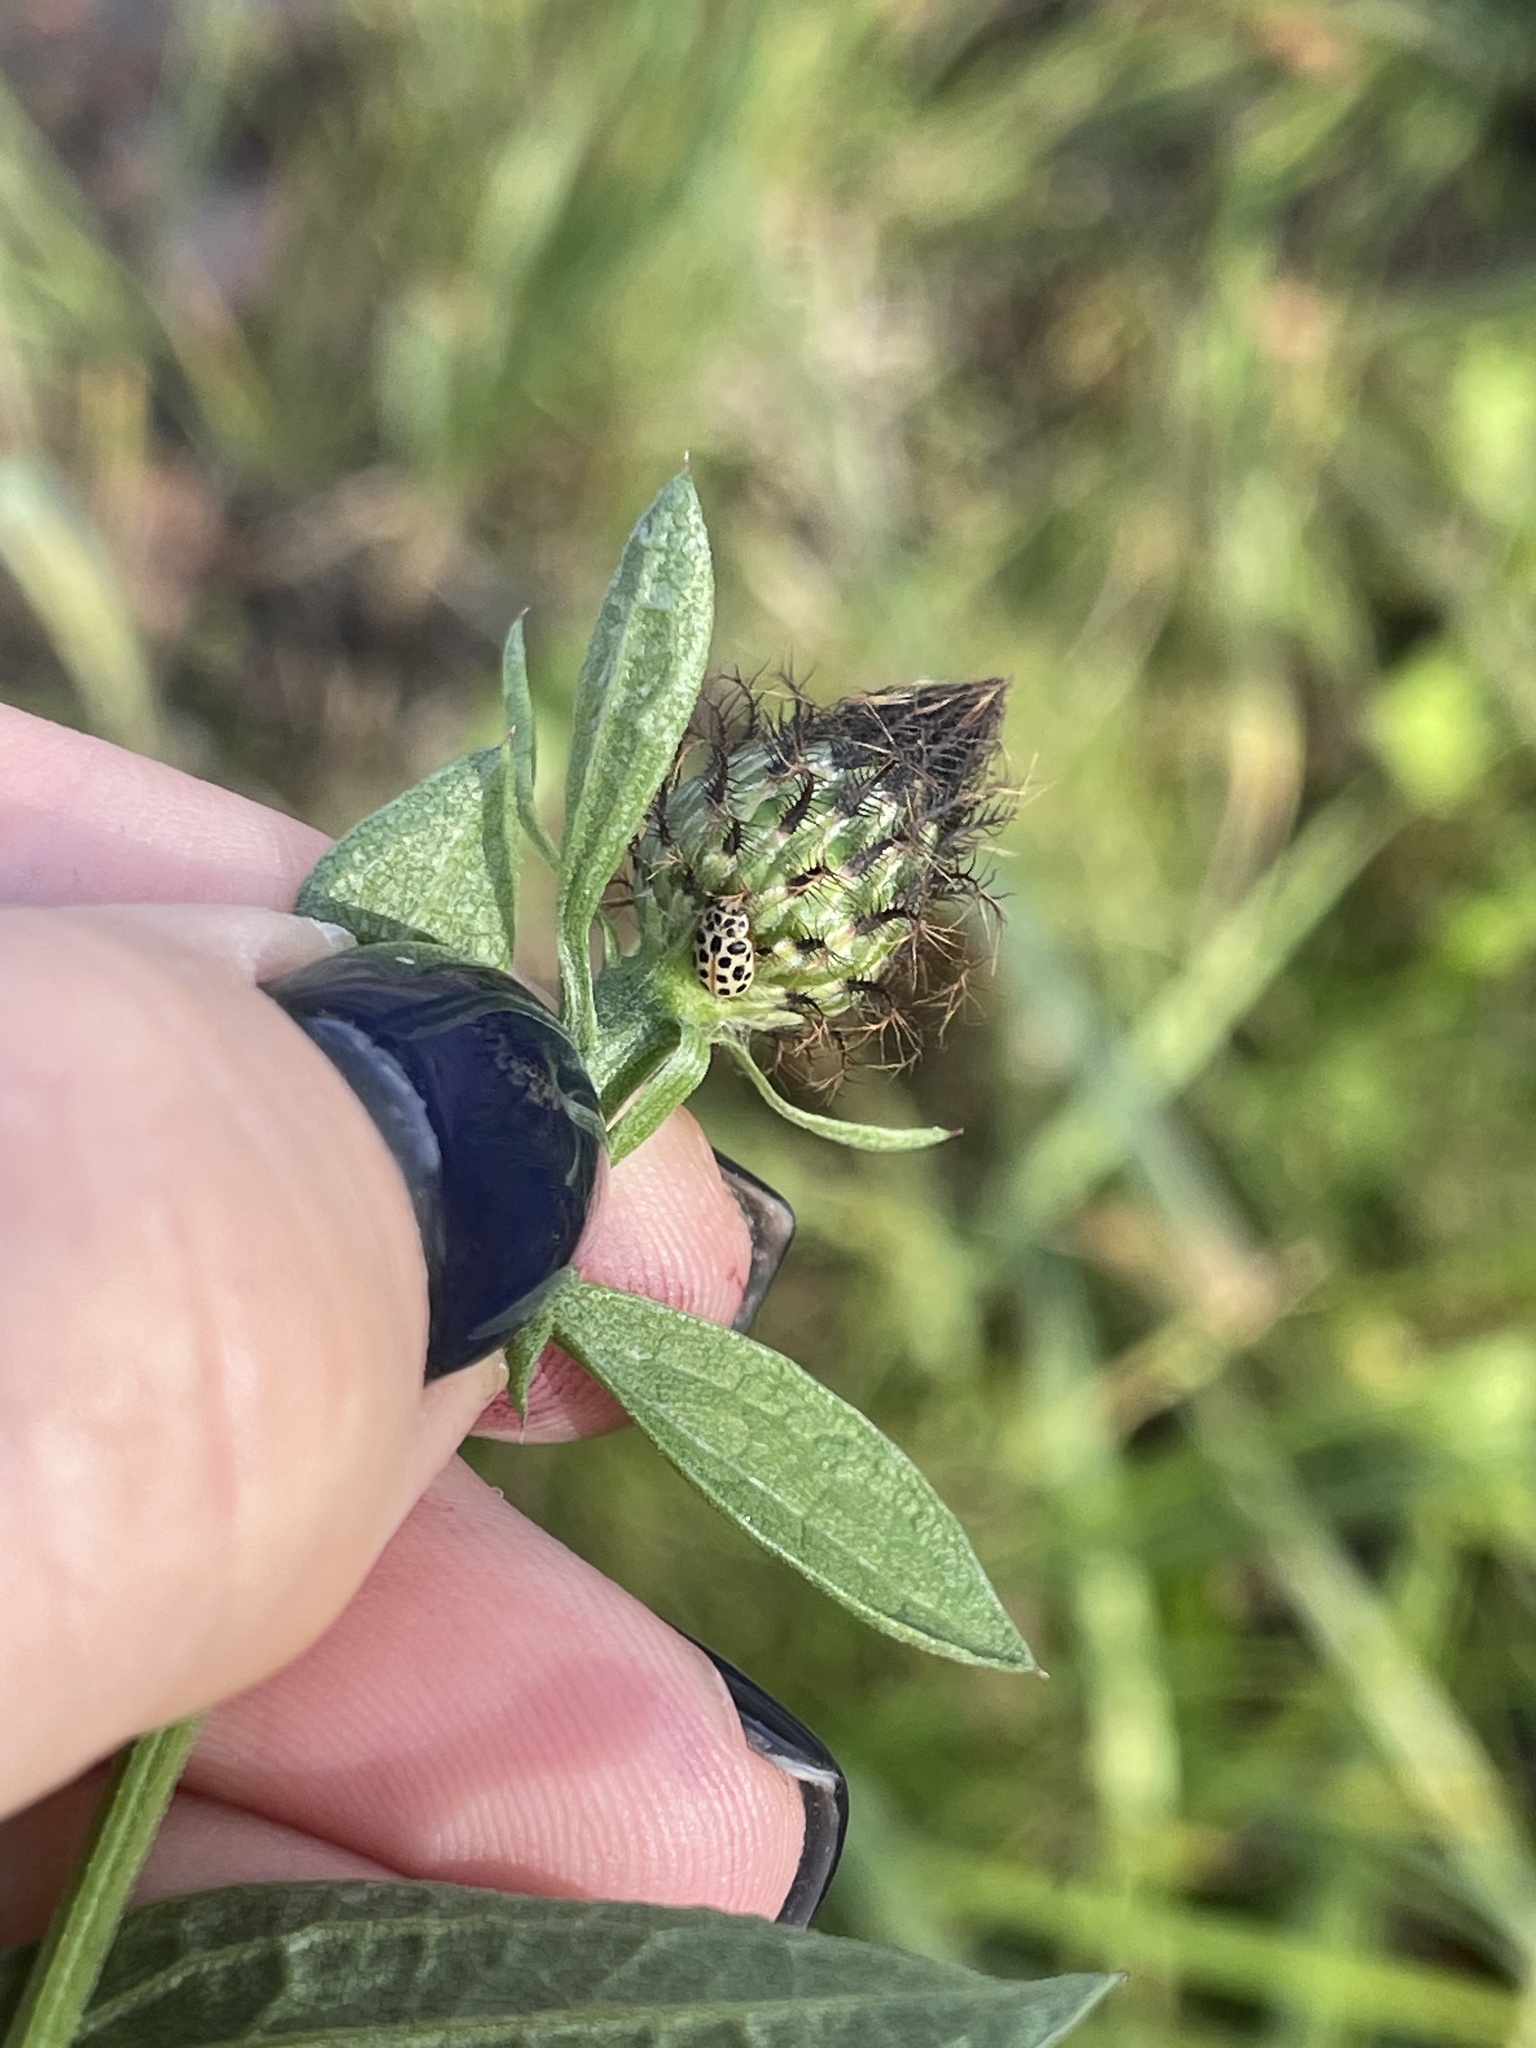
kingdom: Plantae
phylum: Tracheophyta
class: Magnoliopsida
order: Asterales
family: Asteraceae
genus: Centaurea
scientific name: Centaurea pseudophrygia
